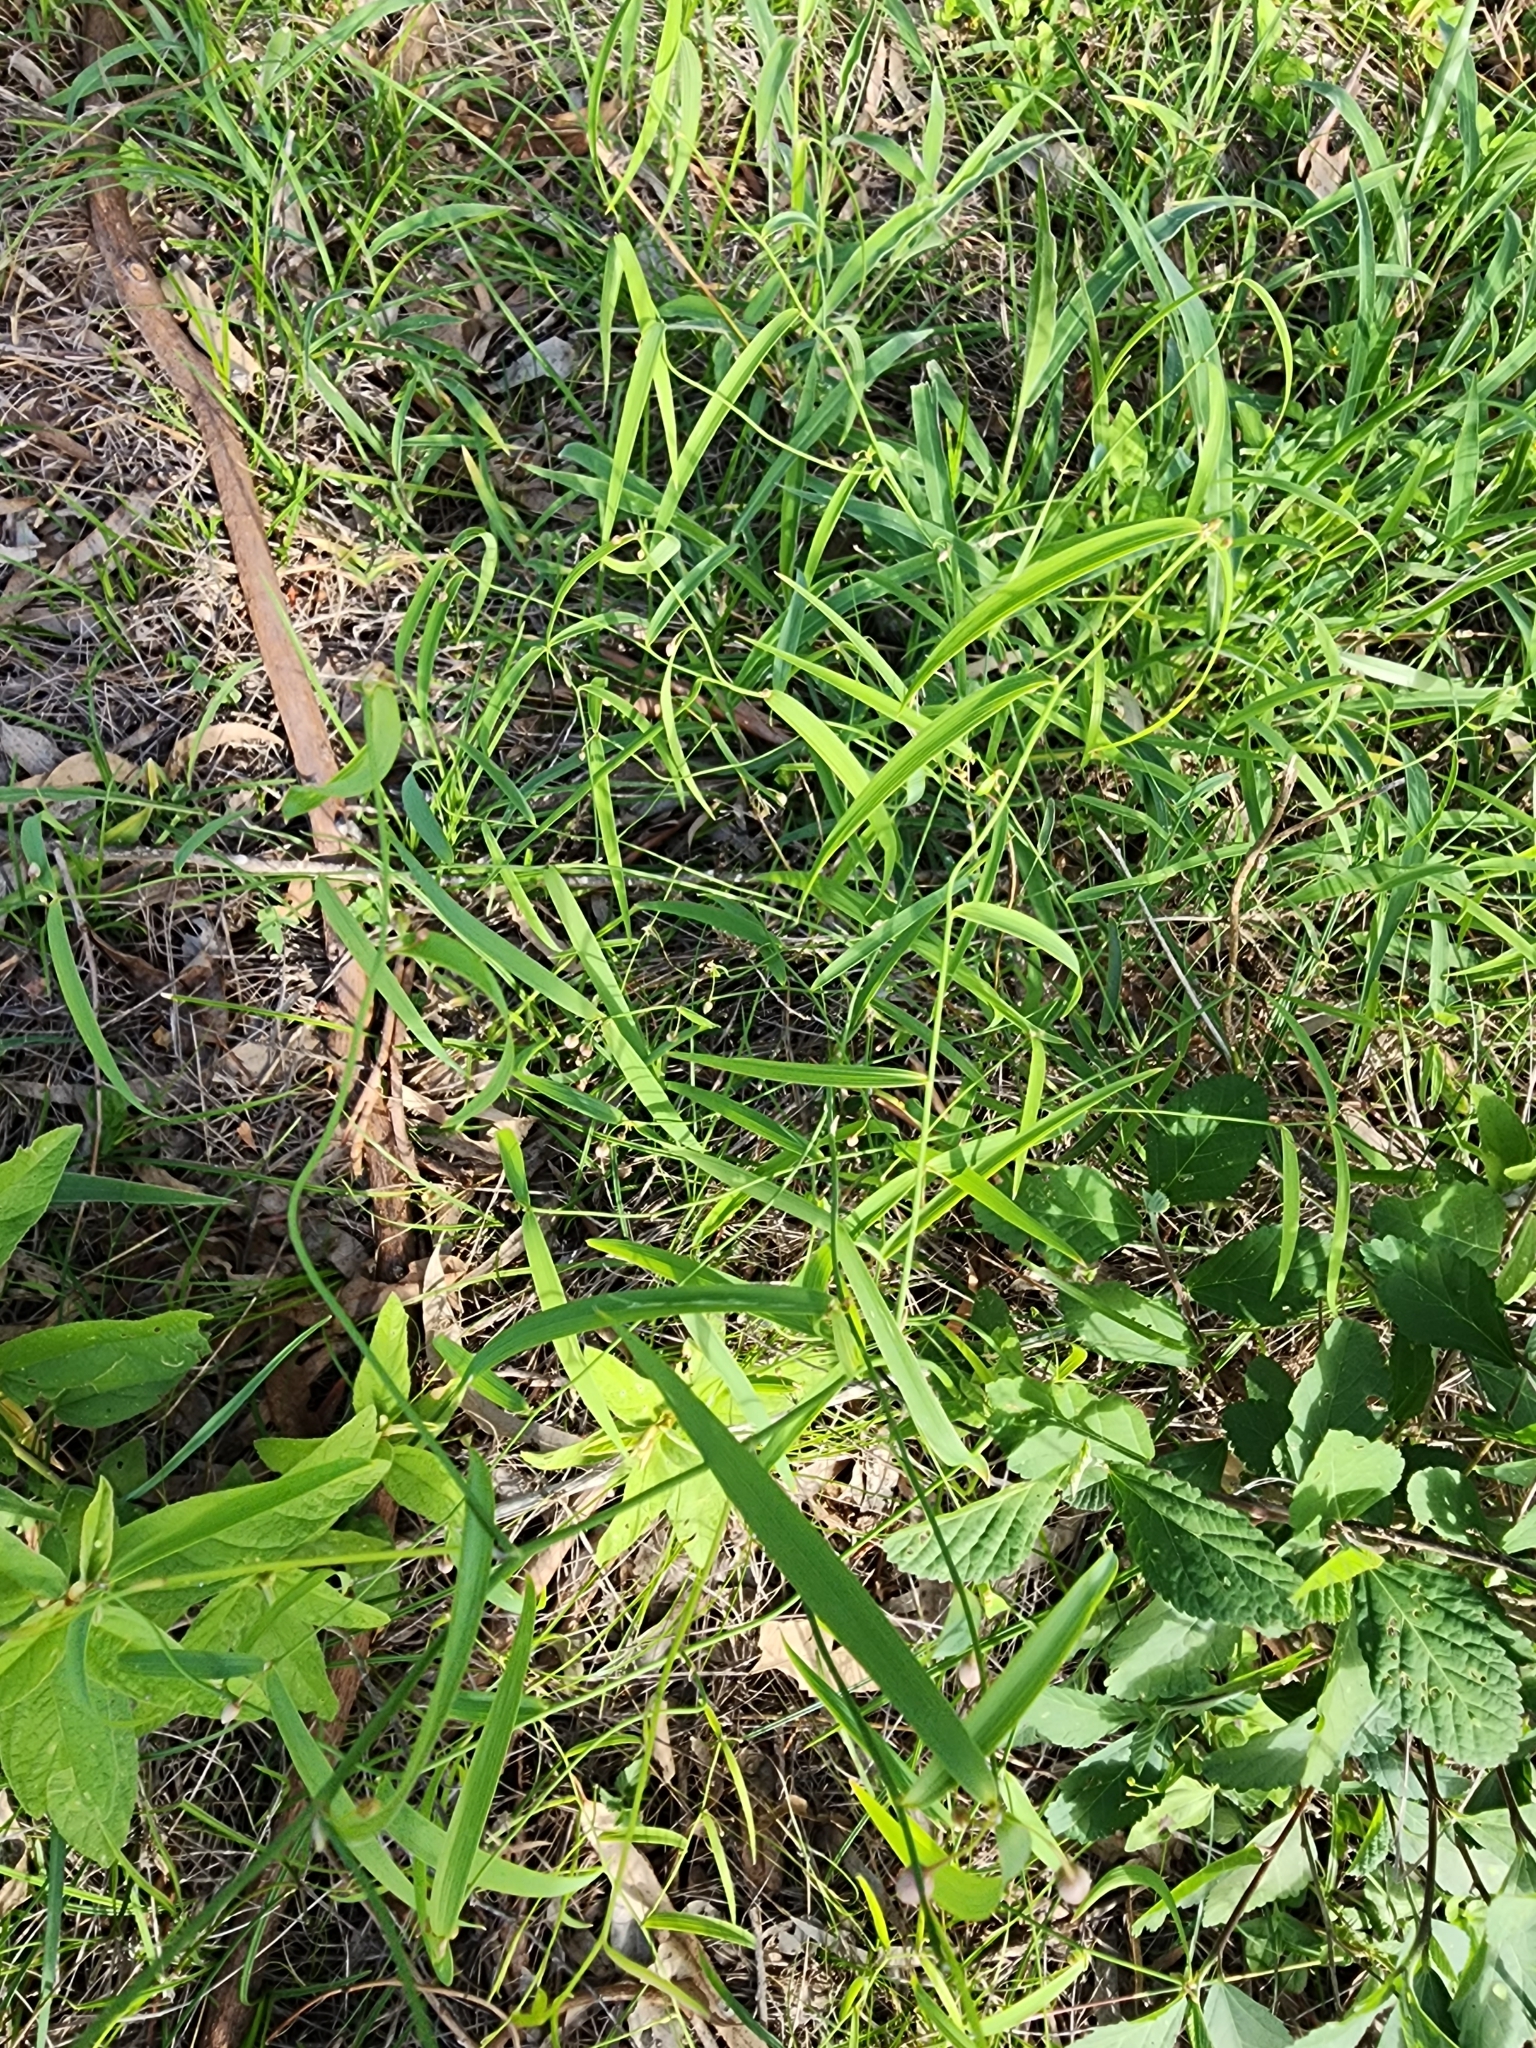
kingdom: Plantae
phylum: Tracheophyta
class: Liliopsida
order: Asparagales
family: Asparagaceae
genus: Eustrephus
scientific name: Eustrephus latifolius
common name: Orangevine
